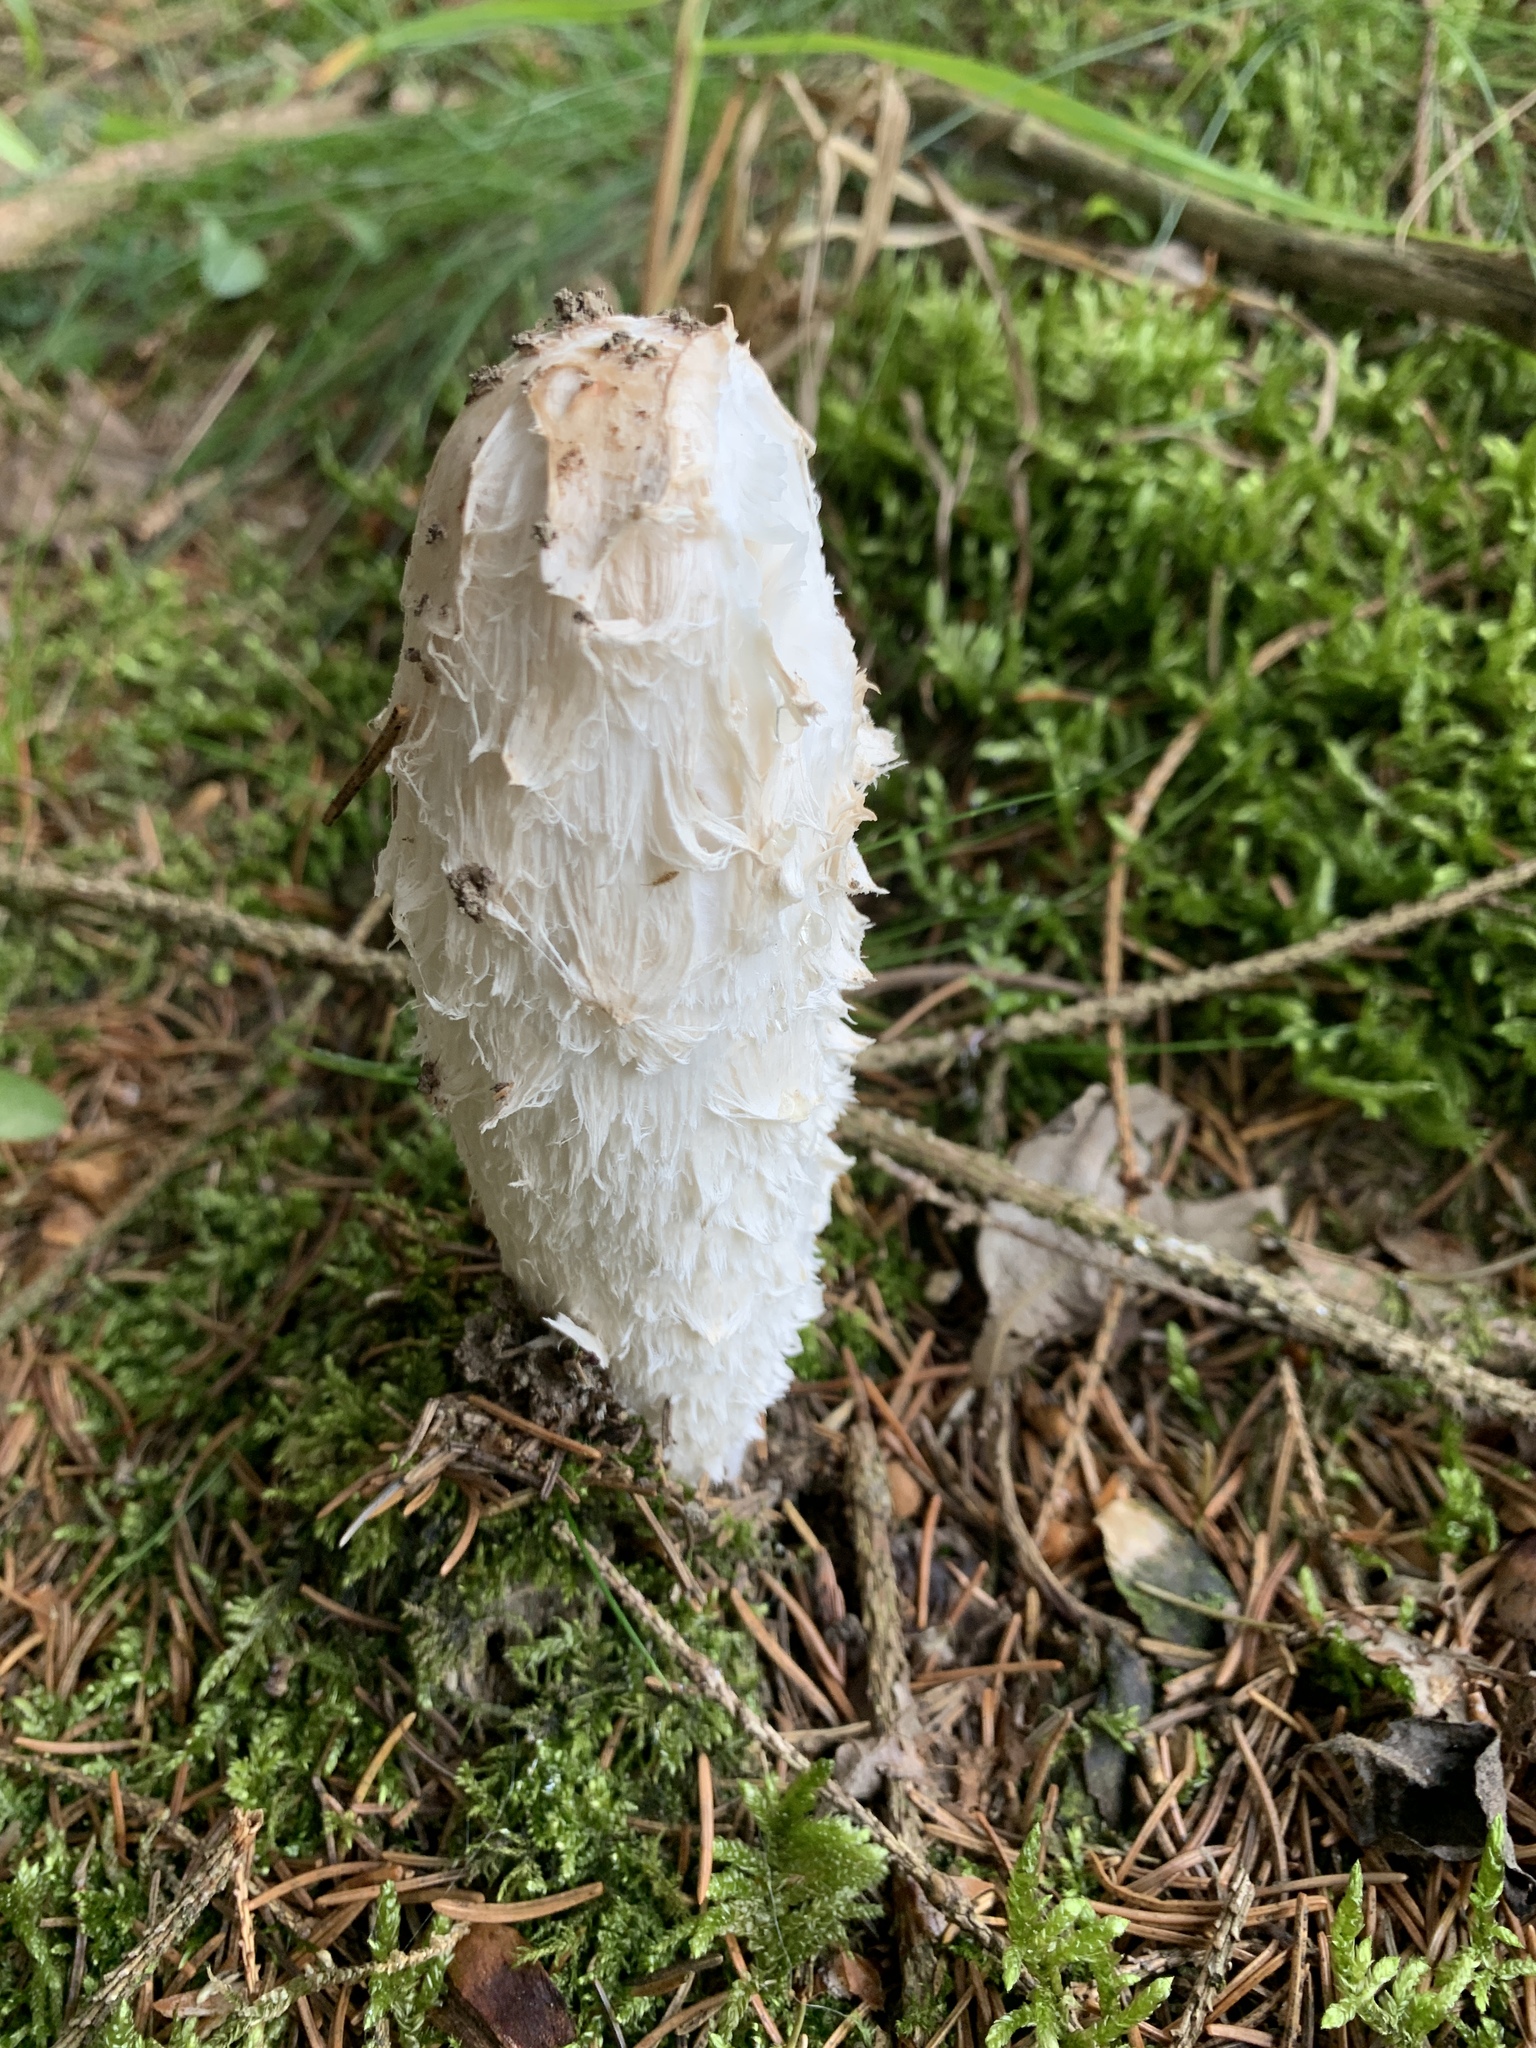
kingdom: Fungi
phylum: Basidiomycota
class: Agaricomycetes
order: Agaricales
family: Agaricaceae
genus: Coprinus
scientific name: Coprinus comatus
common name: Lawyer's wig
